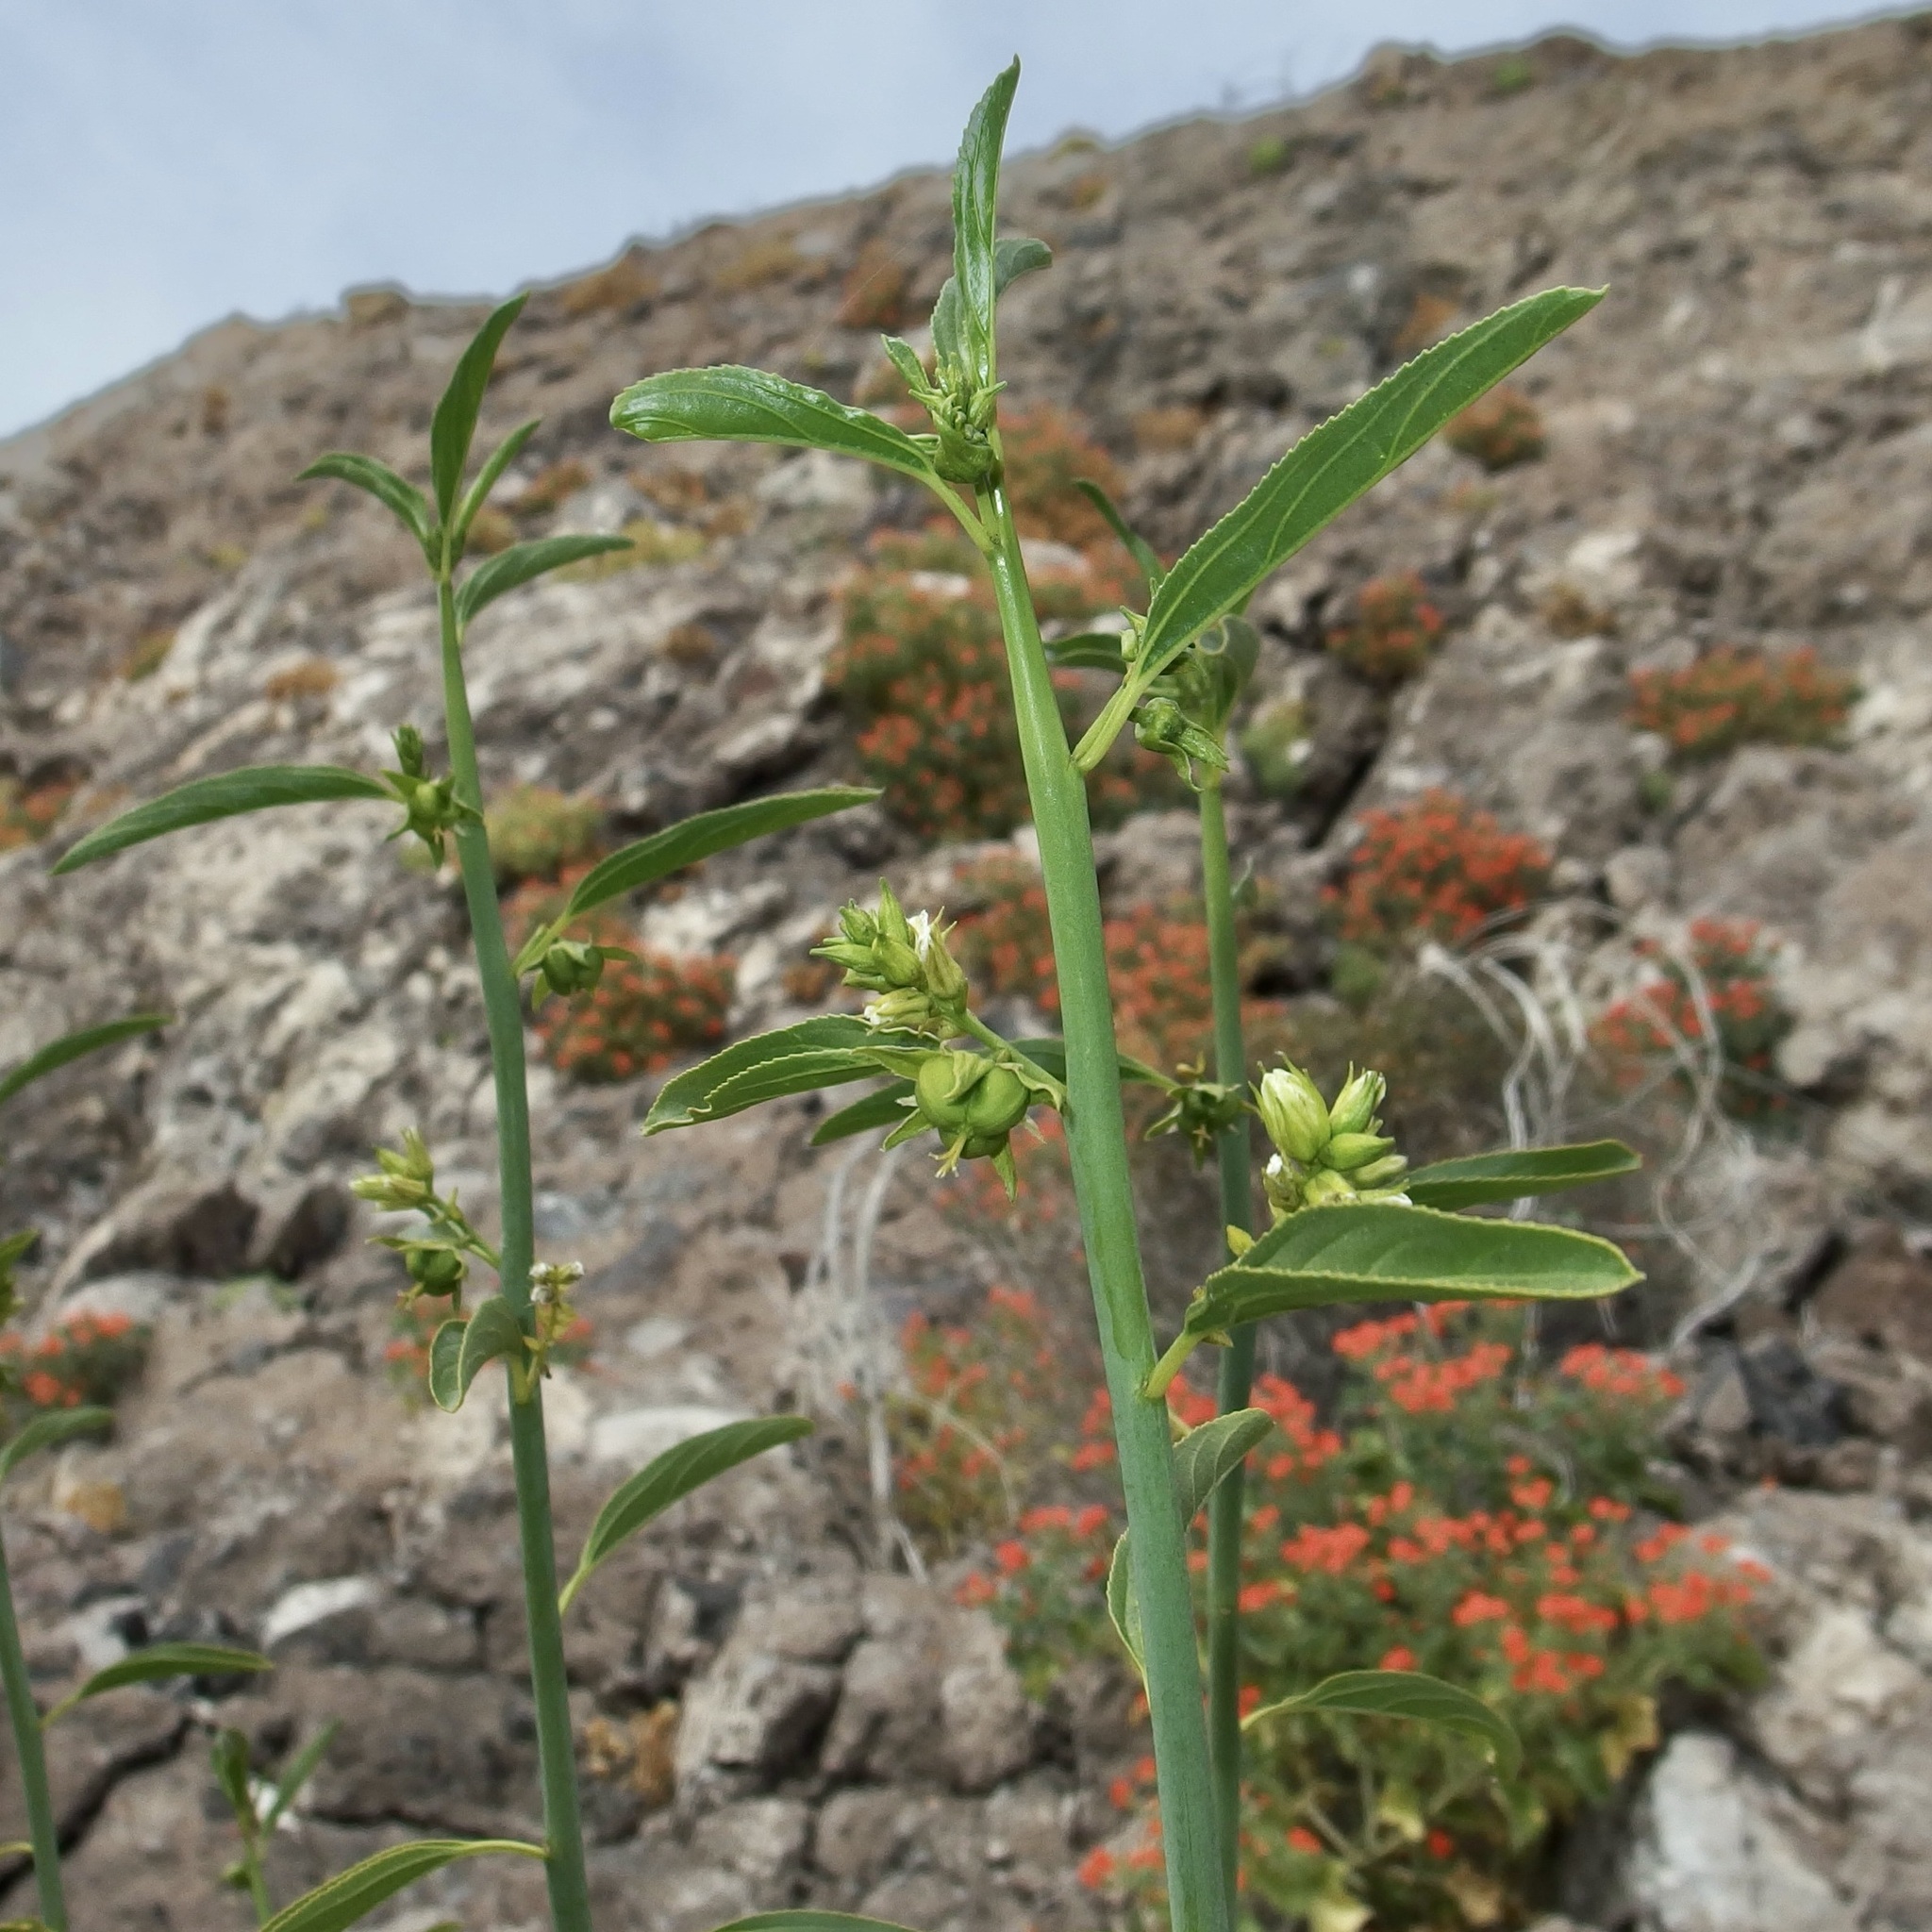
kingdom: Plantae
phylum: Tracheophyta
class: Magnoliopsida
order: Malpighiales
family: Euphorbiaceae
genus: Ditaxis
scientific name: Ditaxis brandegeei
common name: Sonoran silverbush
